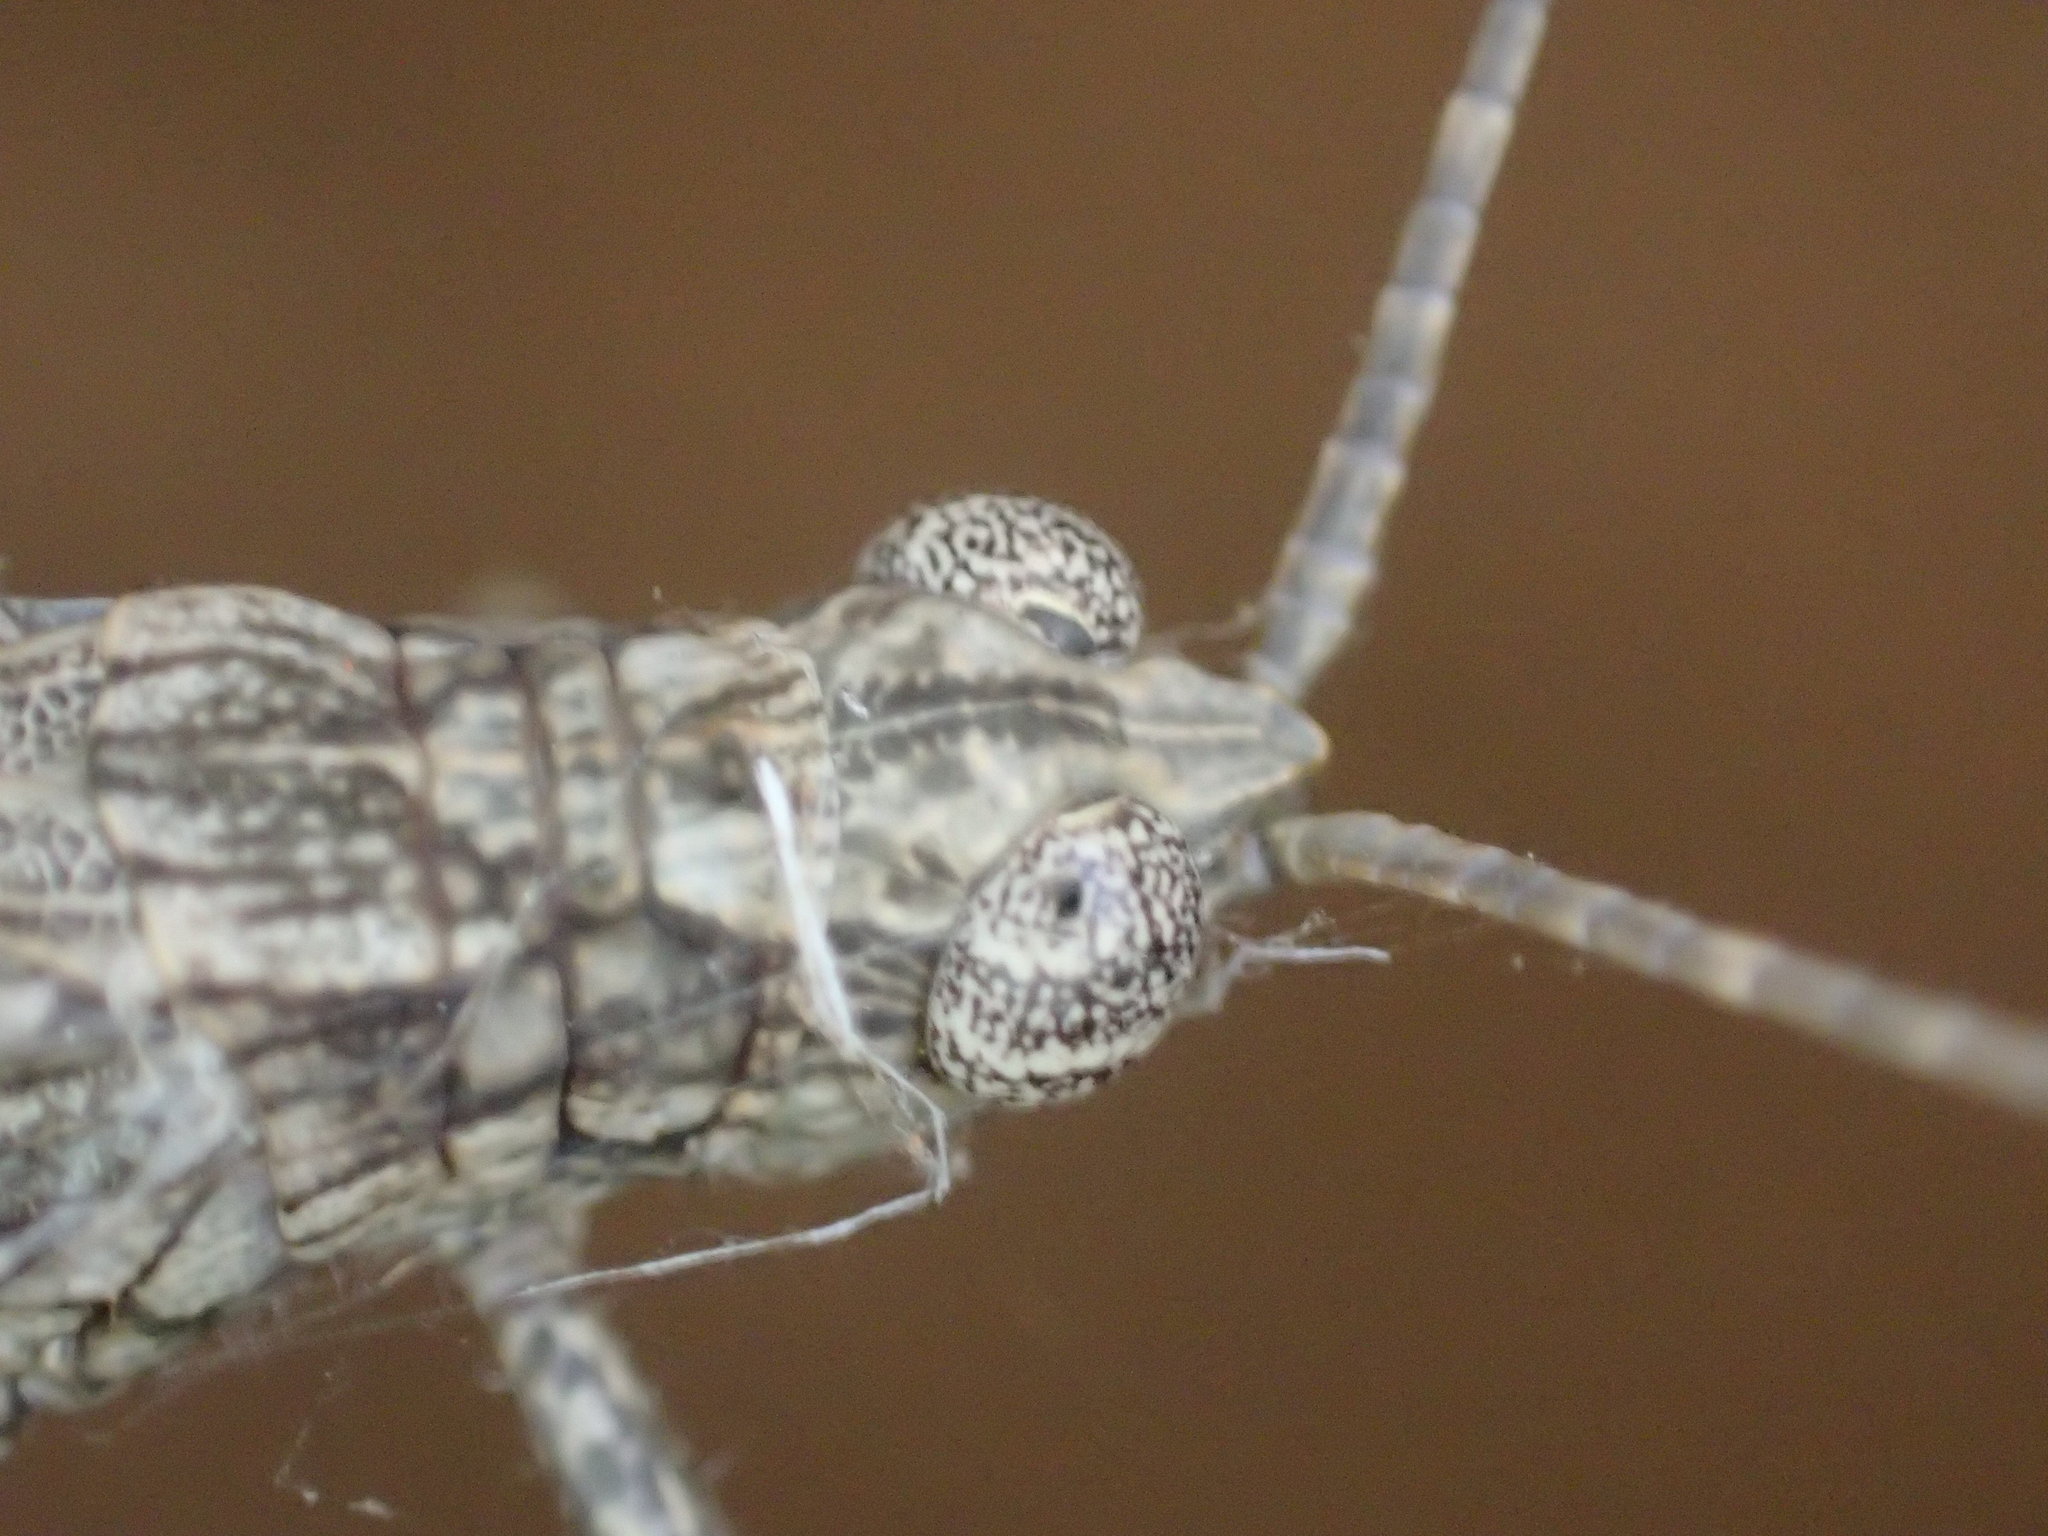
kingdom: Animalia
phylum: Arthropoda
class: Insecta
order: Orthoptera
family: Acrididae
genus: Coryphistes
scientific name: Coryphistes interioris
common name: Hairy coryphistes
